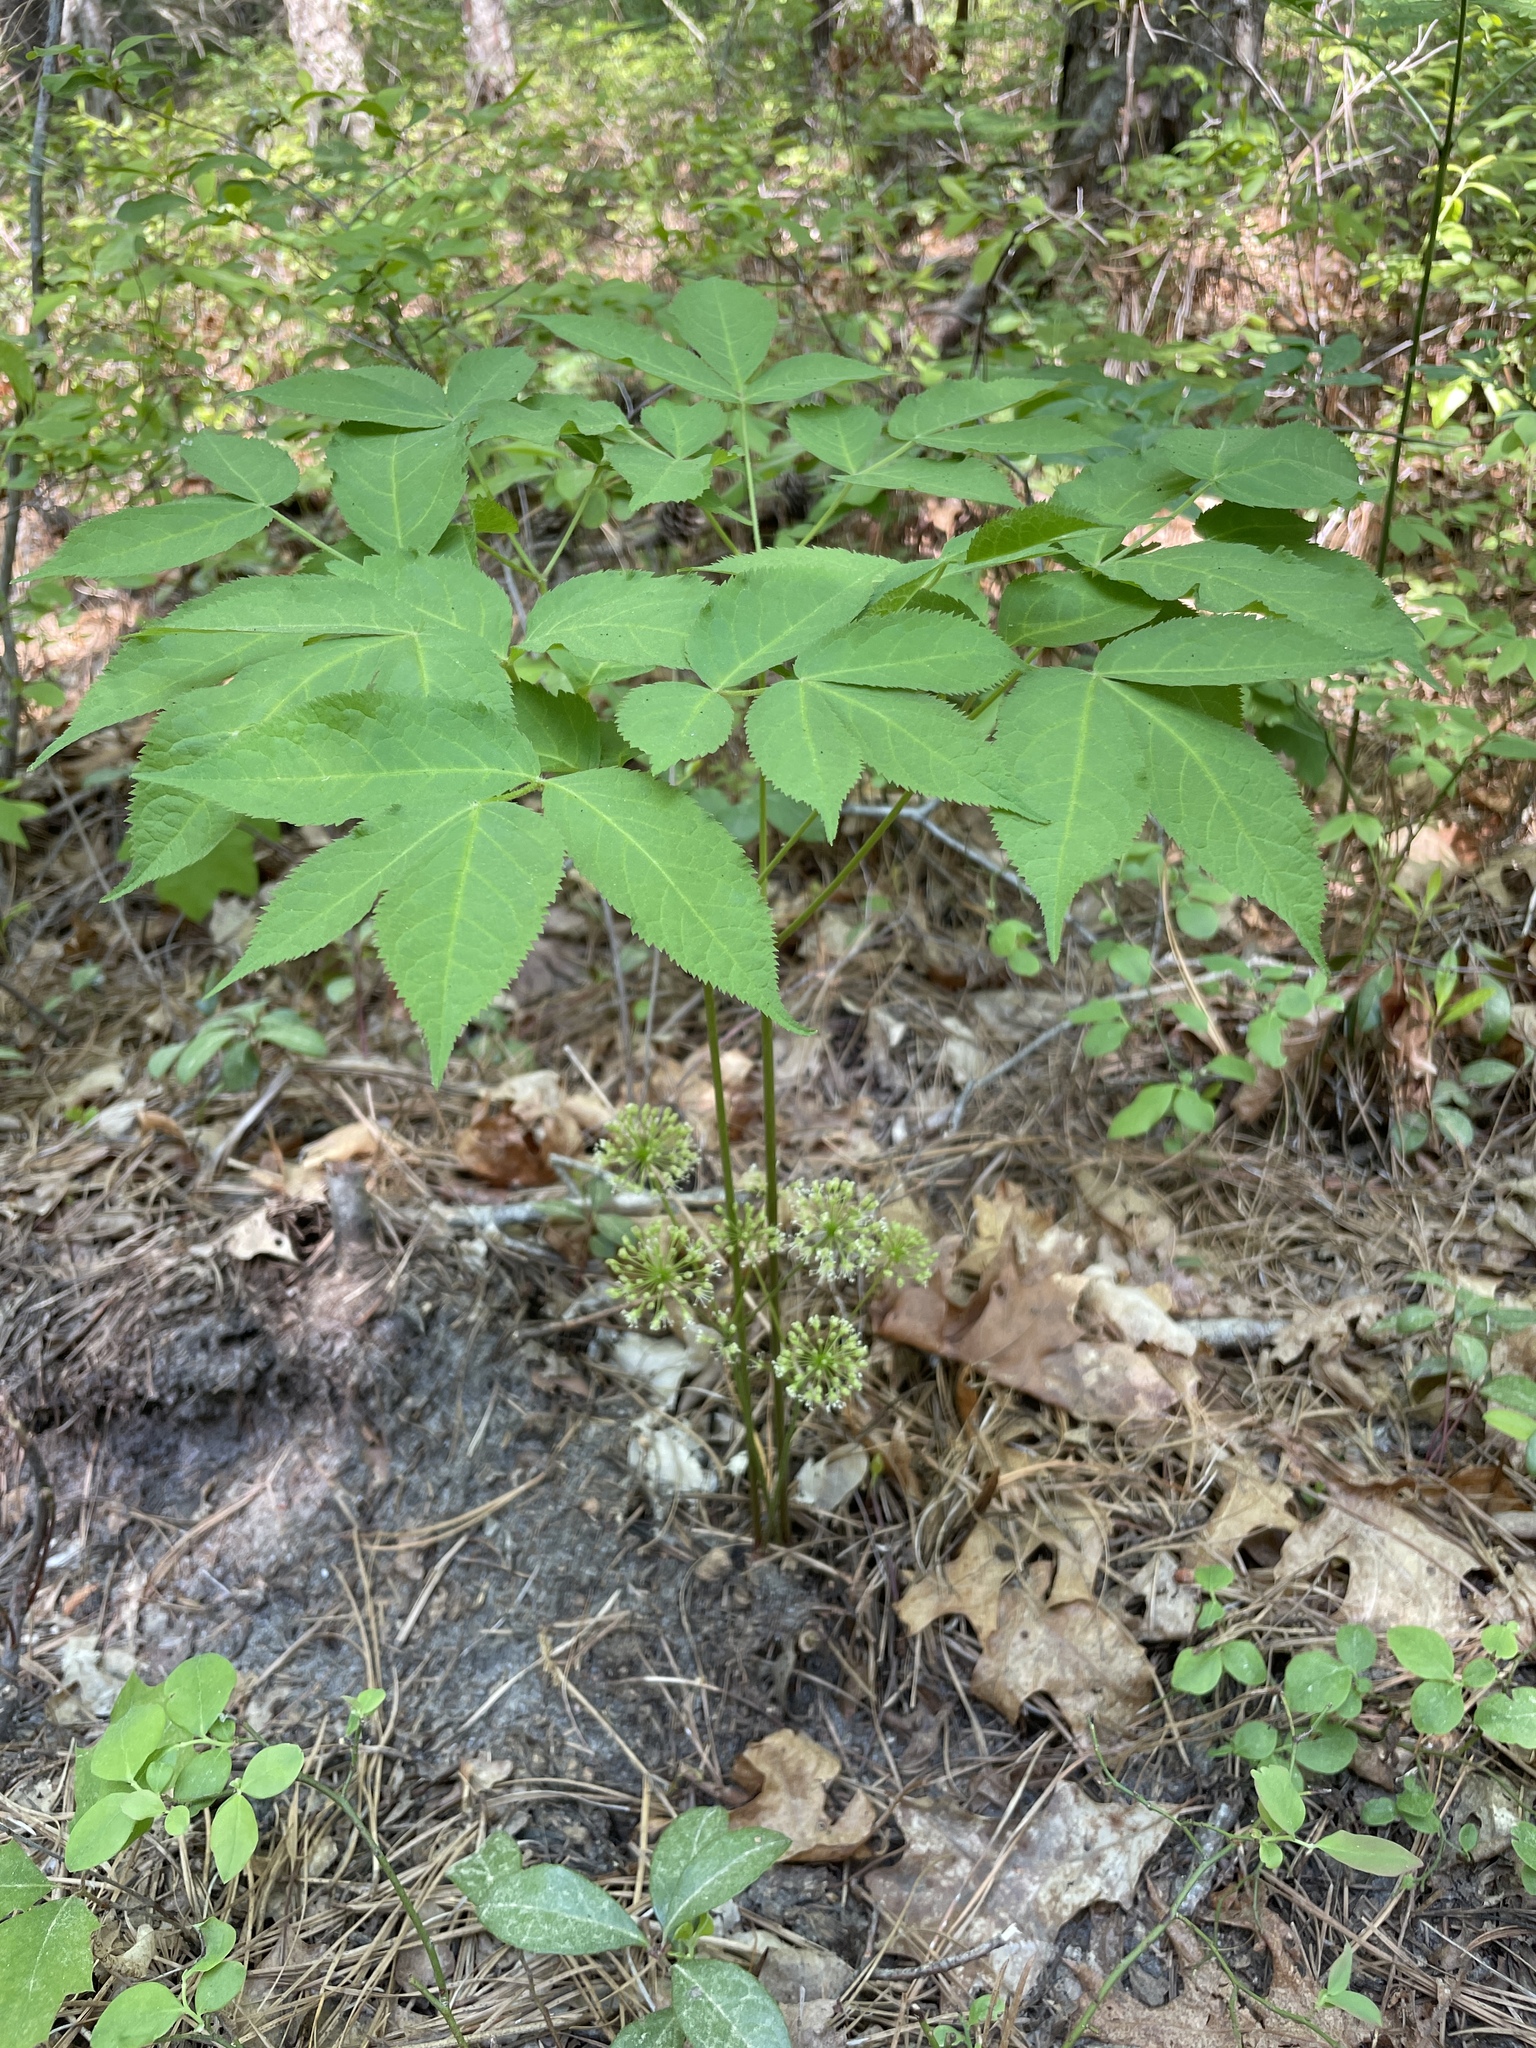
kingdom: Plantae
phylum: Tracheophyta
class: Magnoliopsida
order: Apiales
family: Araliaceae
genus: Aralia
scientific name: Aralia nudicaulis
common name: Wild sarsaparilla
